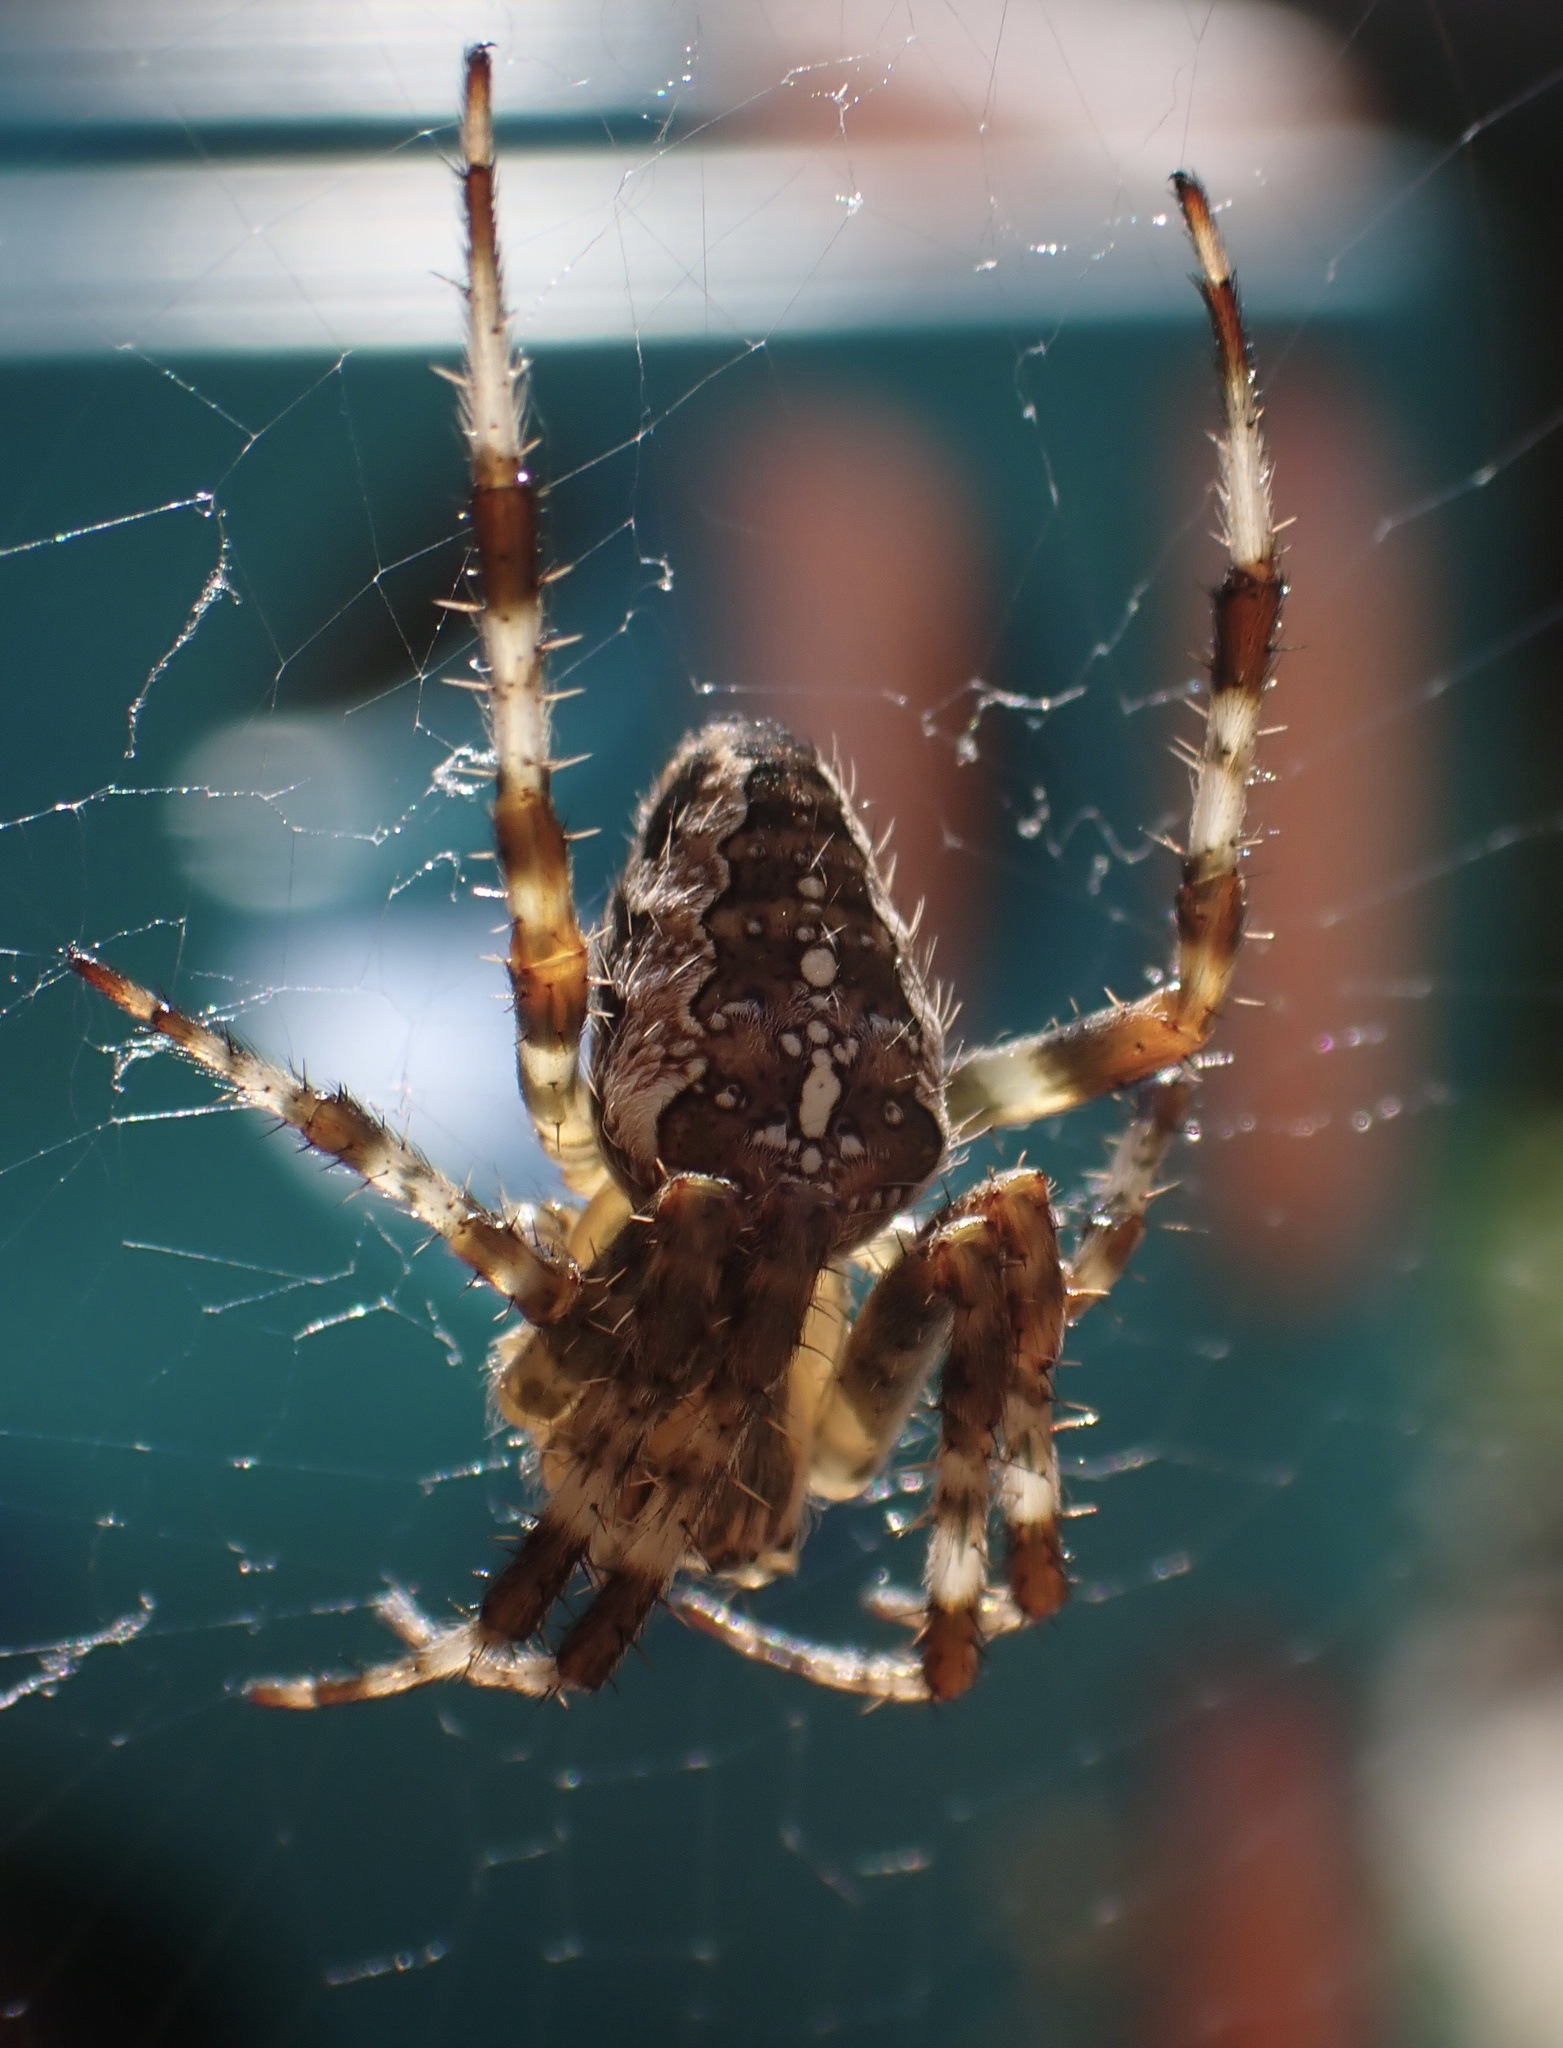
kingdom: Animalia
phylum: Arthropoda
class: Arachnida
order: Araneae
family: Araneidae
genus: Araneus
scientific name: Araneus diadematus
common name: Cross orbweaver
